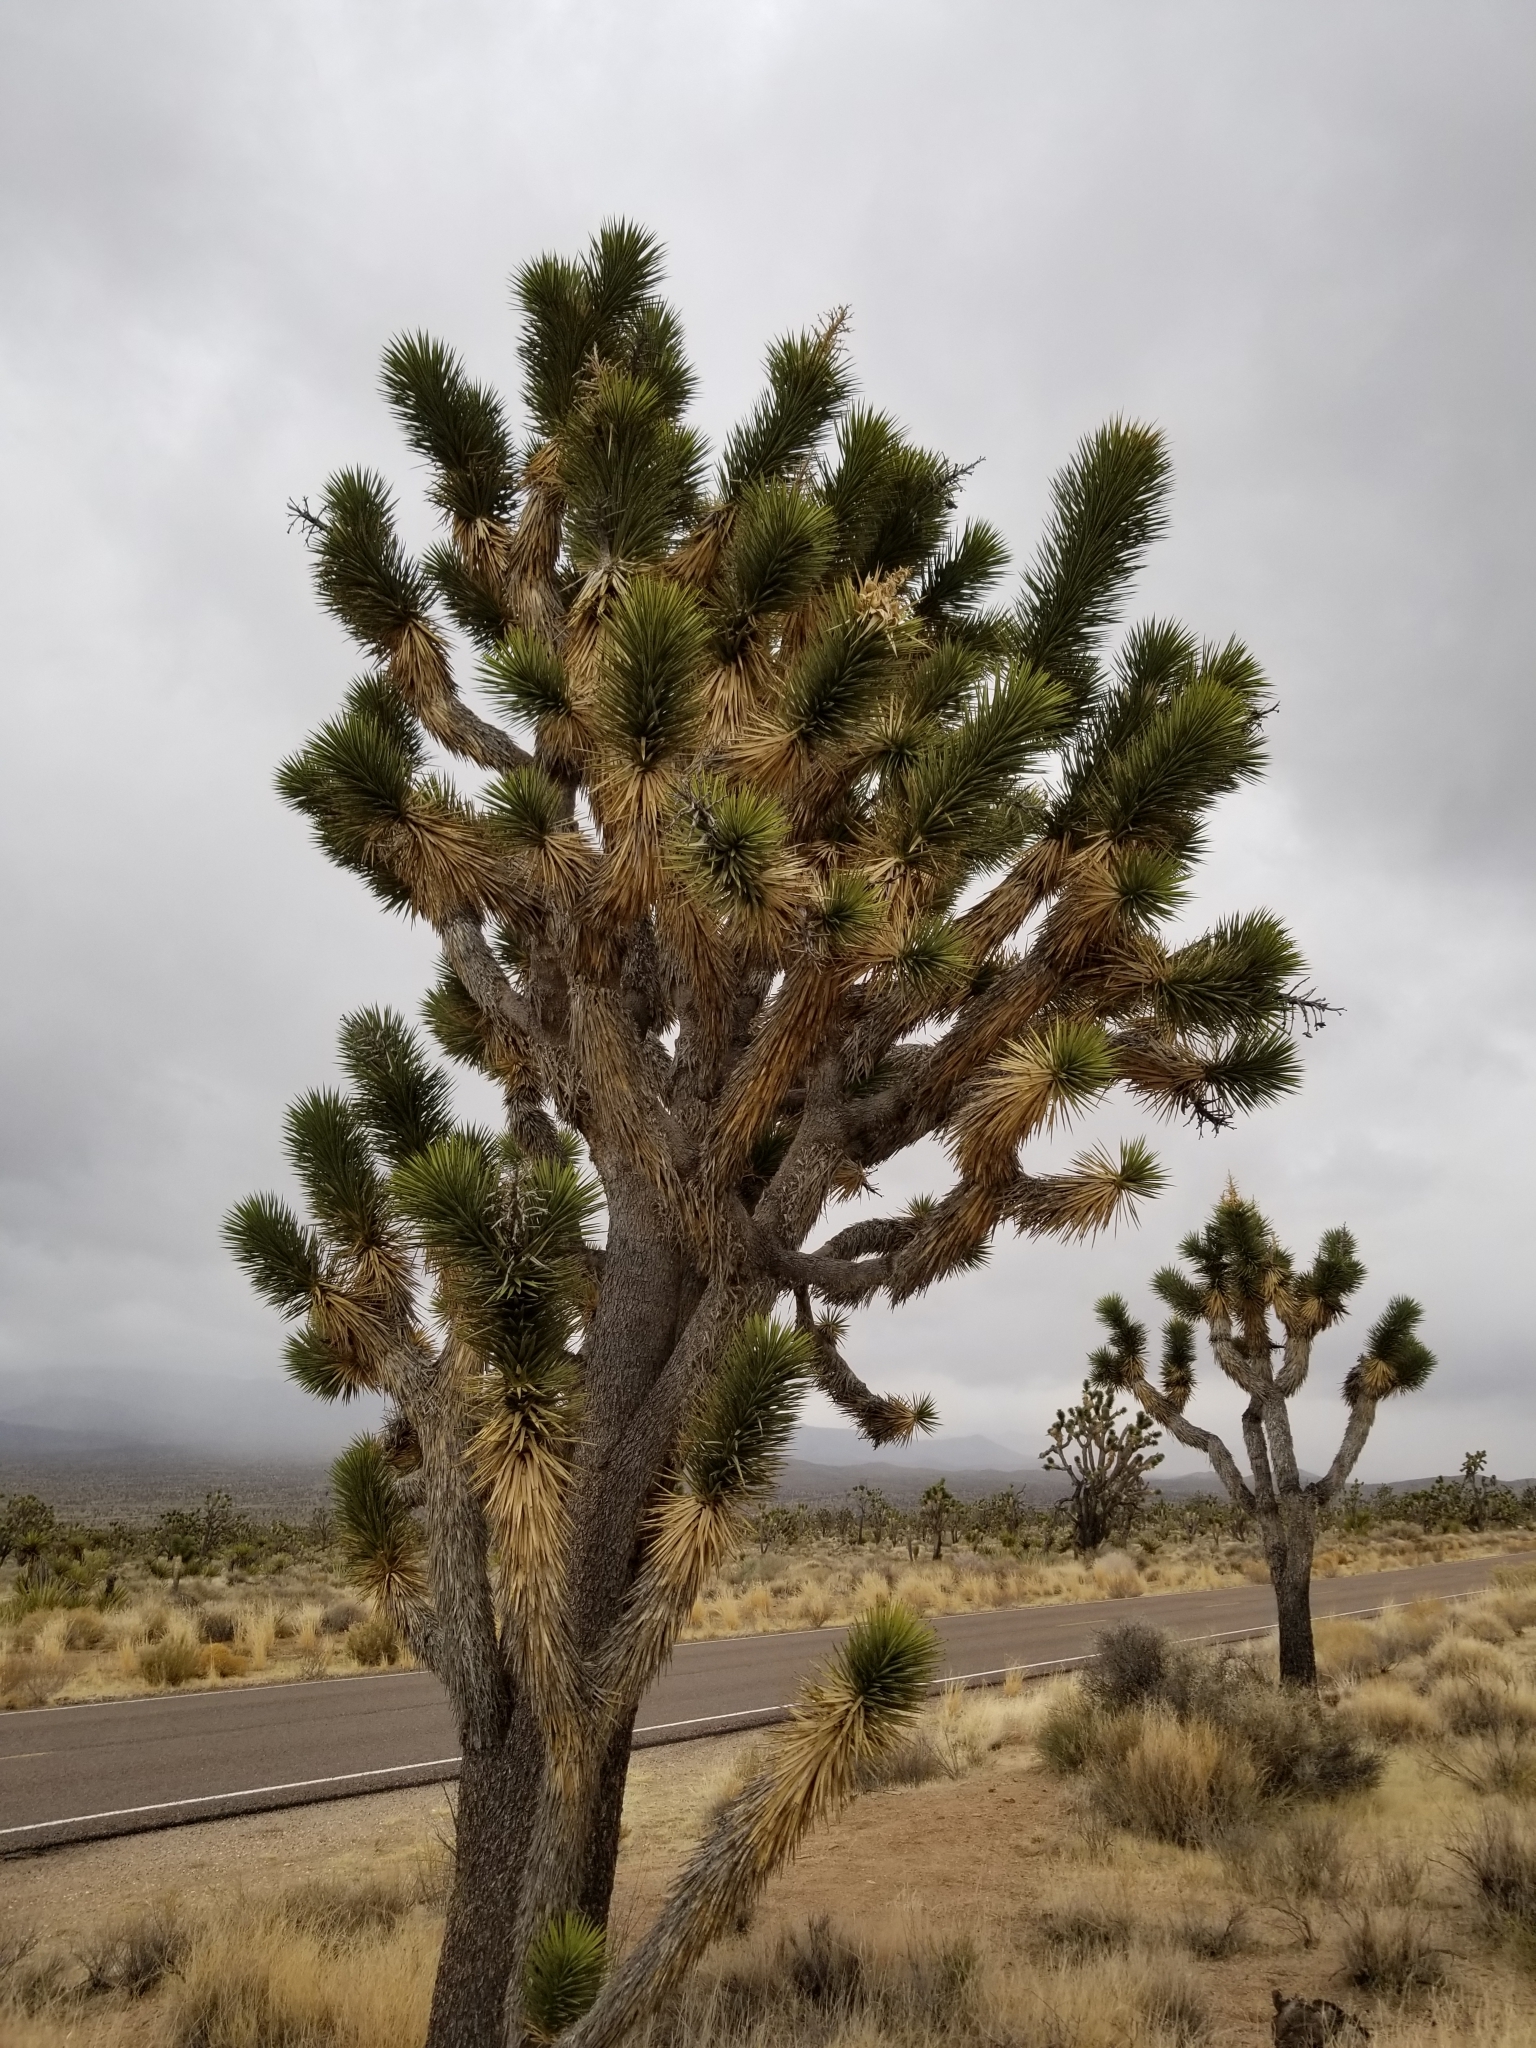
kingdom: Plantae
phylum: Tracheophyta
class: Liliopsida
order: Asparagales
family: Asparagaceae
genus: Yucca
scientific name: Yucca brevifolia
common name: Joshua tree
